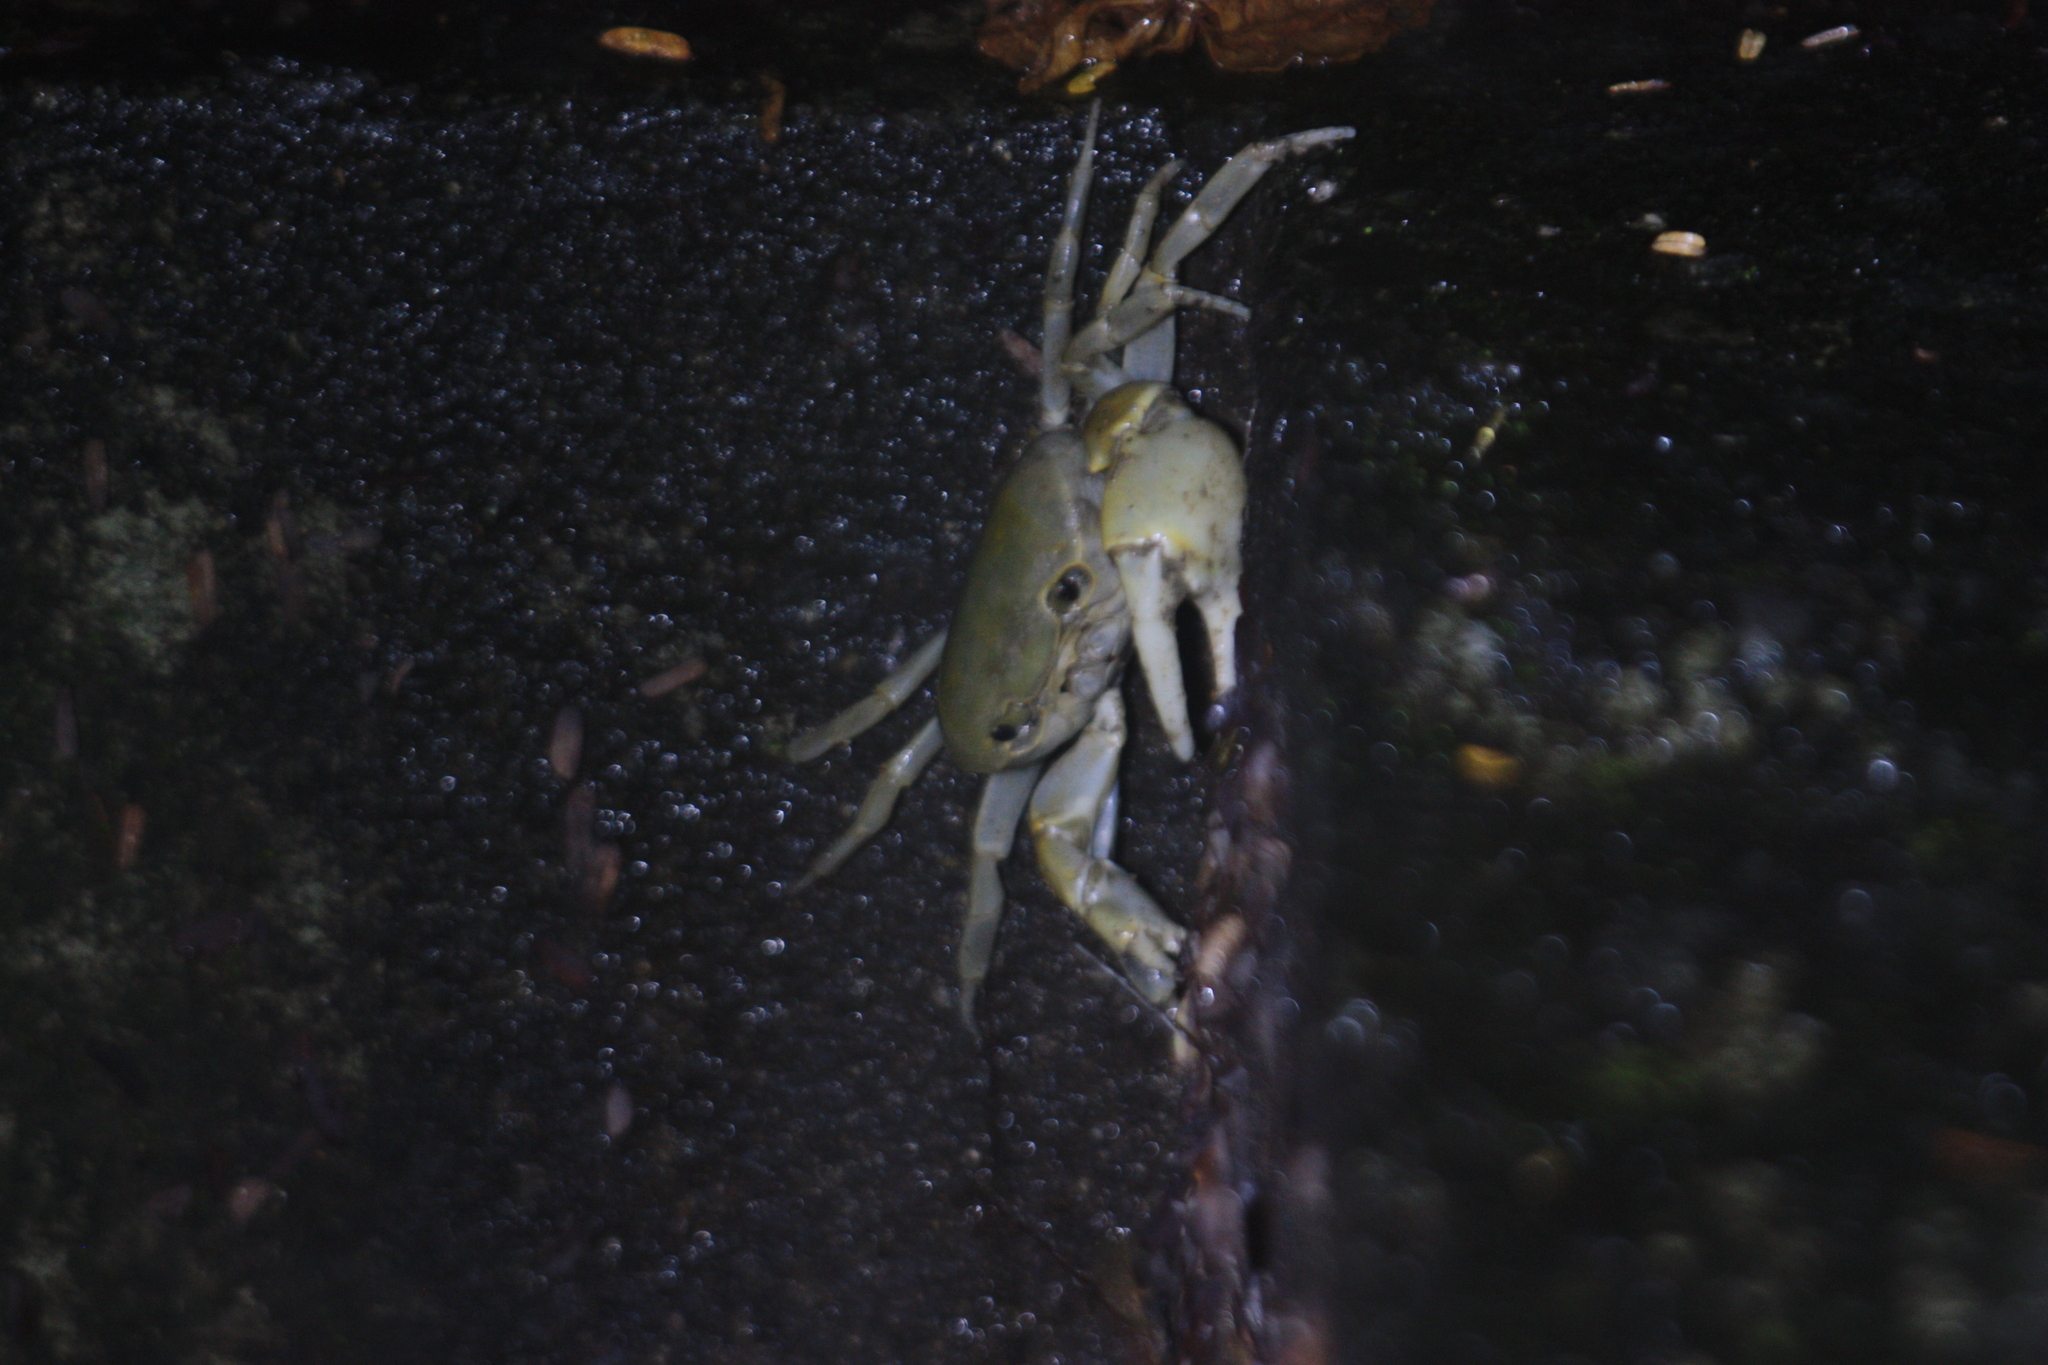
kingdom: Animalia
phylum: Arthropoda
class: Malacostraca
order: Decapoda
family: Potamidae
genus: Geothelphusa
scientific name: Geothelphusa makatao
